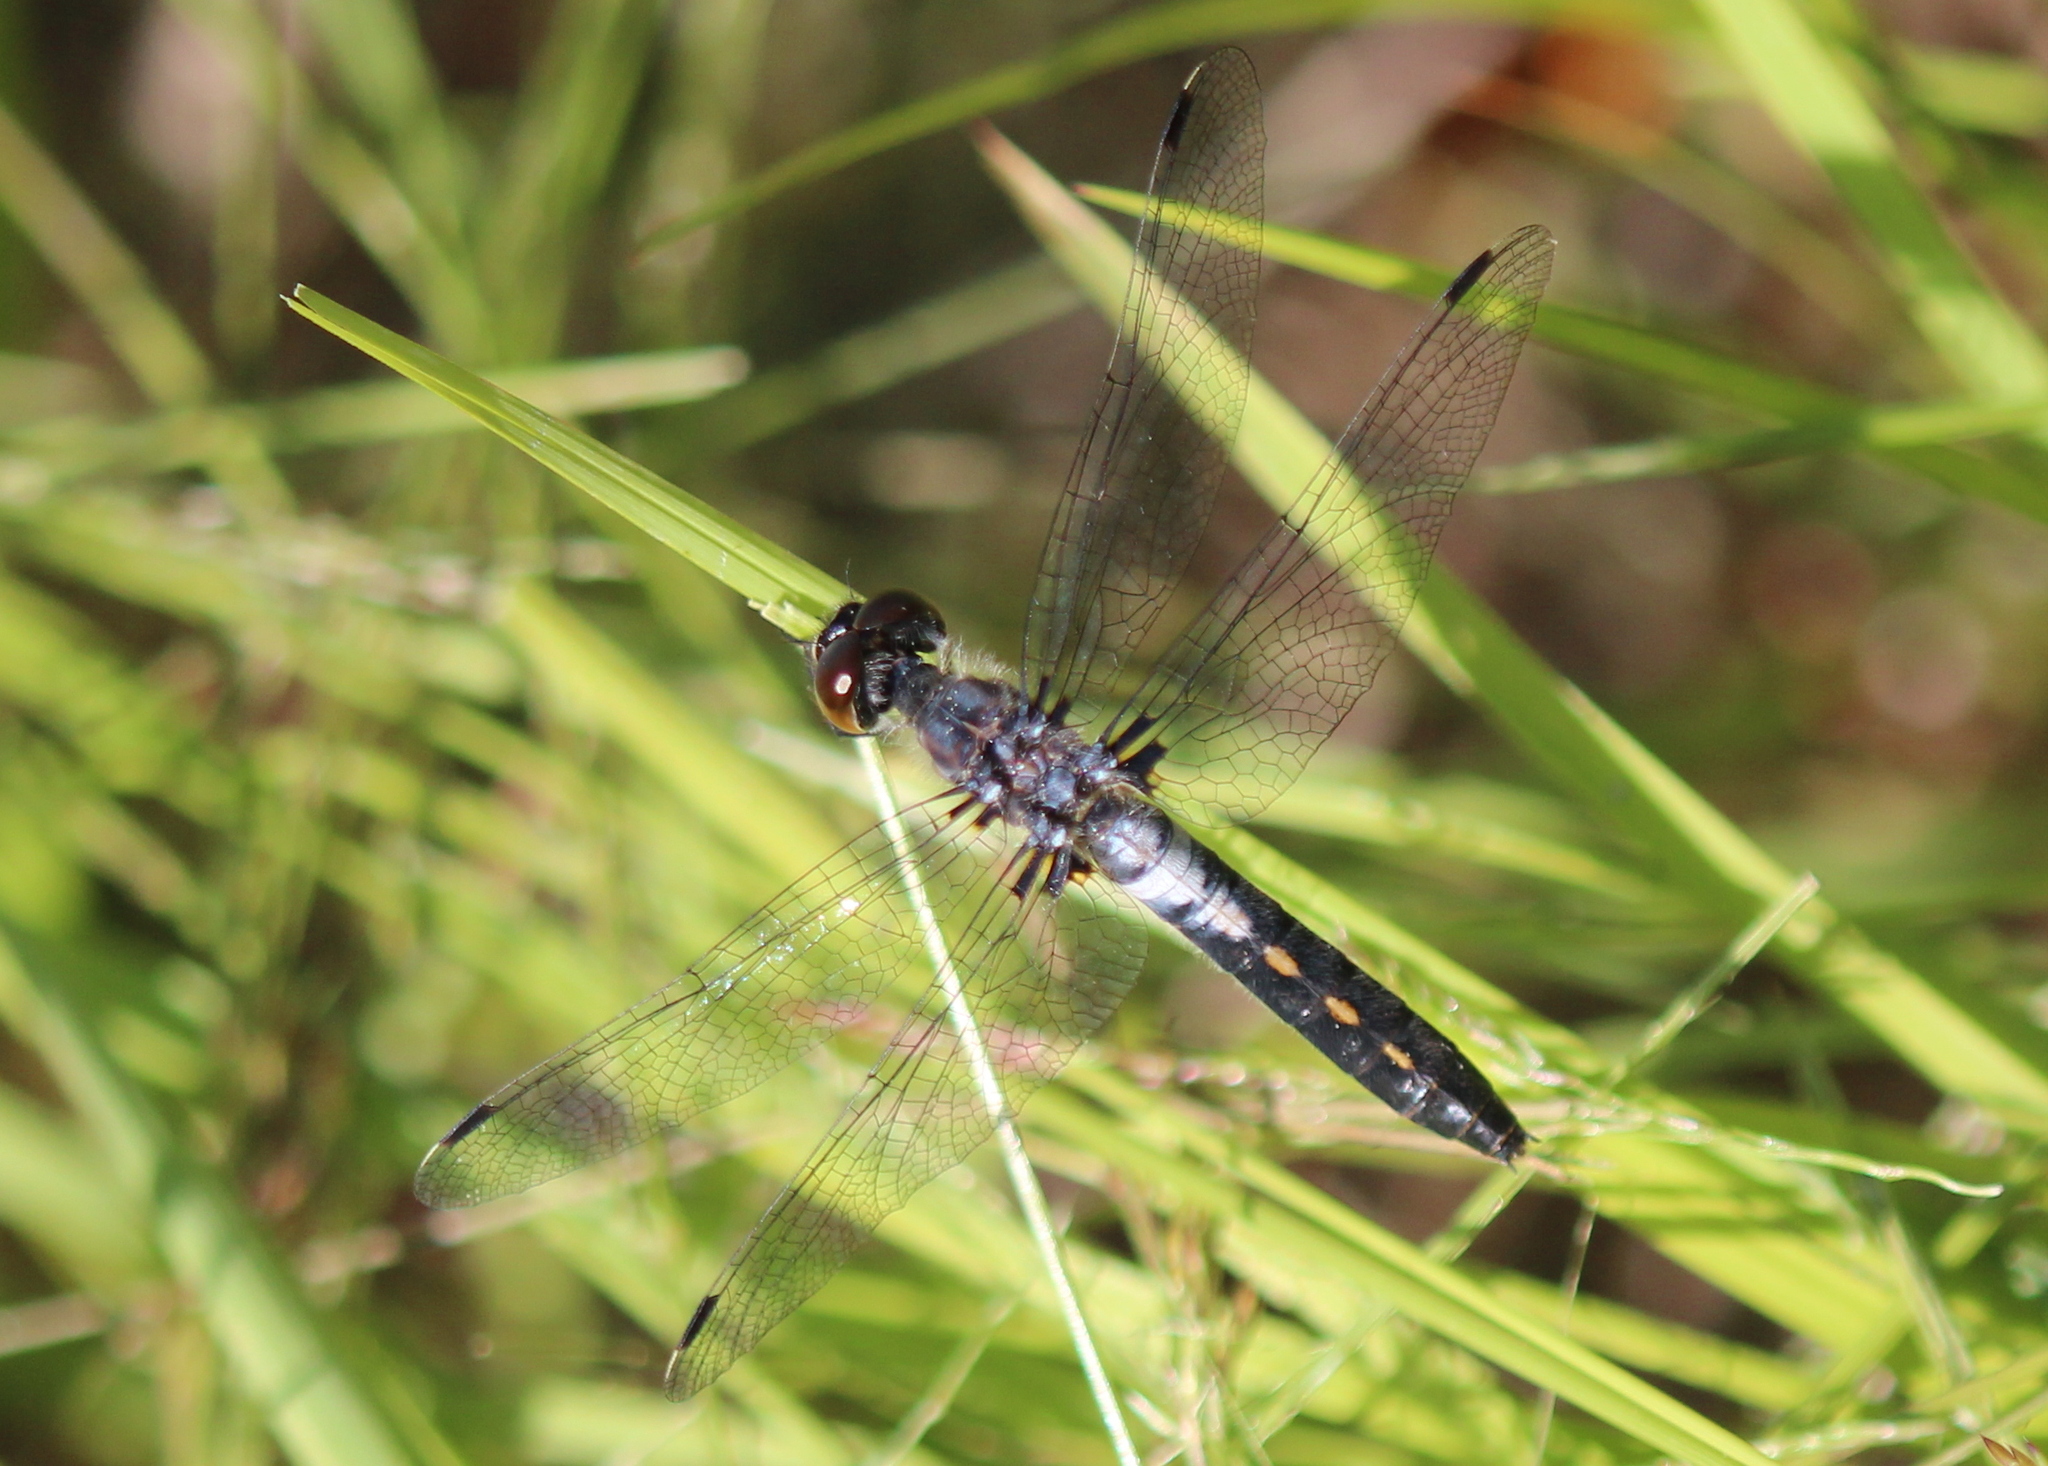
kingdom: Animalia
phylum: Arthropoda
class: Insecta
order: Odonata
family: Libellulidae
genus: Leucorrhinia
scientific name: Leucorrhinia frigida
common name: Frosted whiteface
